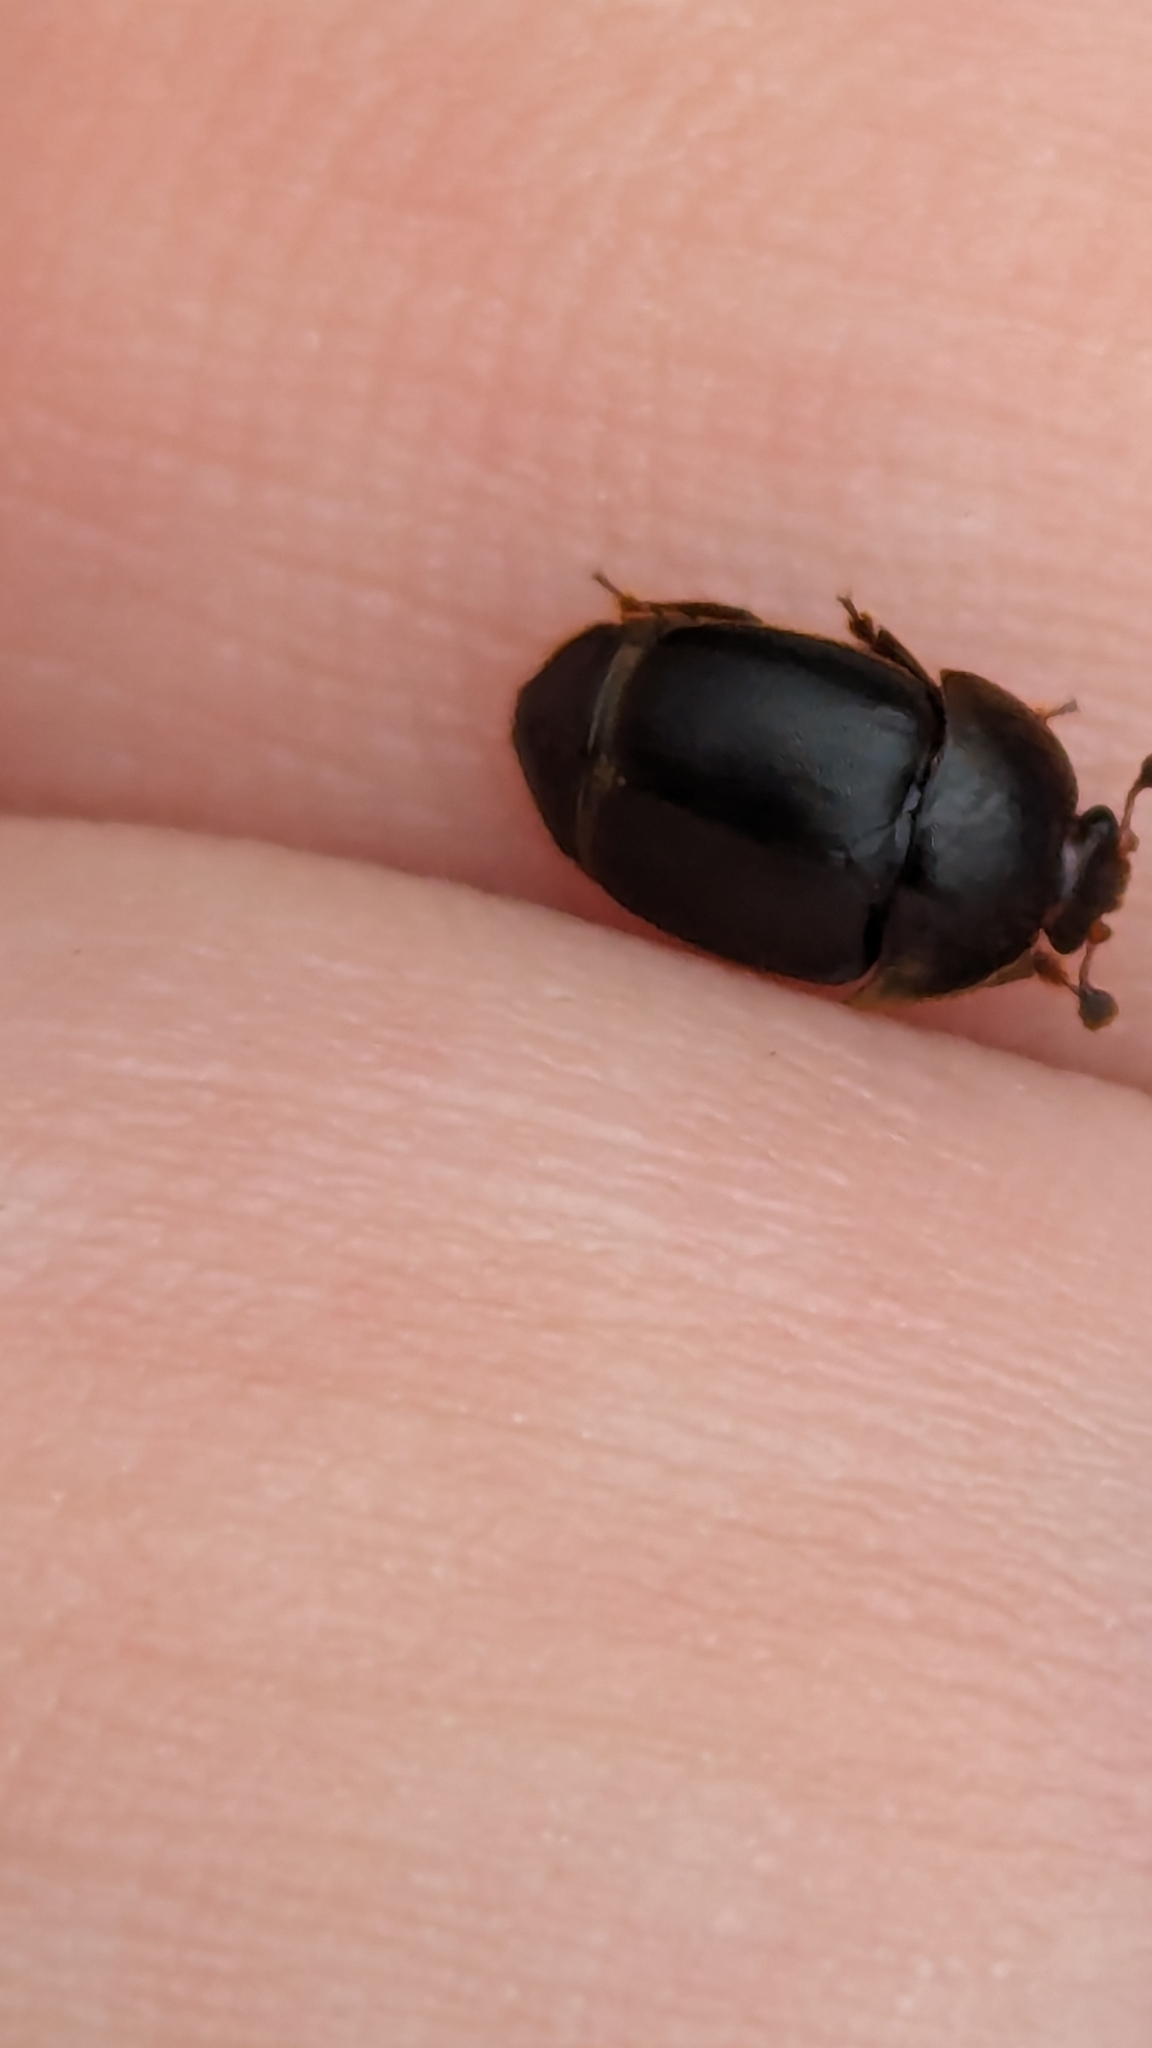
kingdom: Animalia
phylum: Arthropoda
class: Insecta
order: Coleoptera
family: Nitidulidae
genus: Aethina
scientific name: Aethina tumida
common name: Small hive beetle
